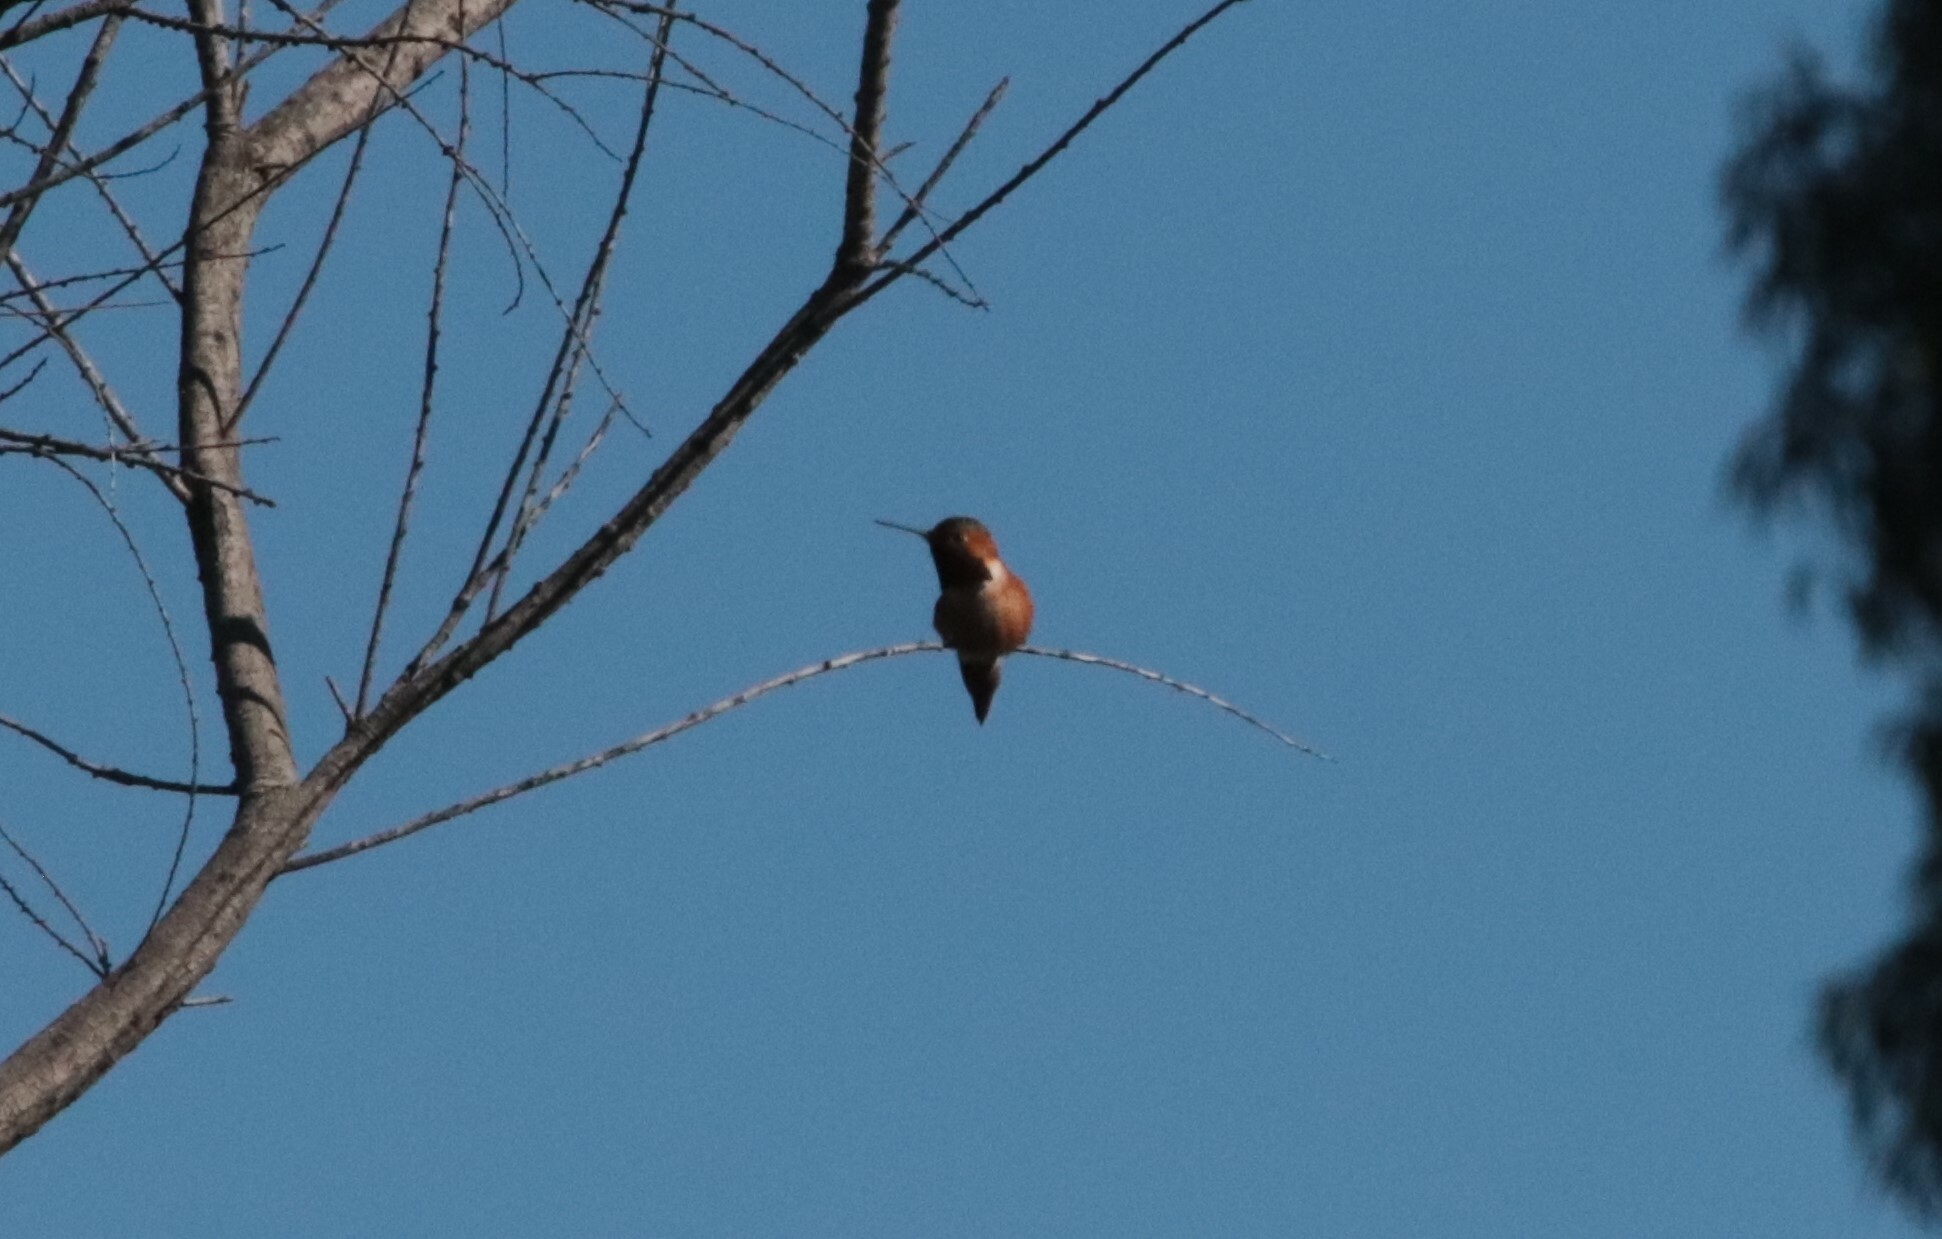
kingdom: Animalia
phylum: Chordata
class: Aves
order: Apodiformes
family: Trochilidae
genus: Selasphorus
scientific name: Selasphorus sasin
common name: Allen's hummingbird
